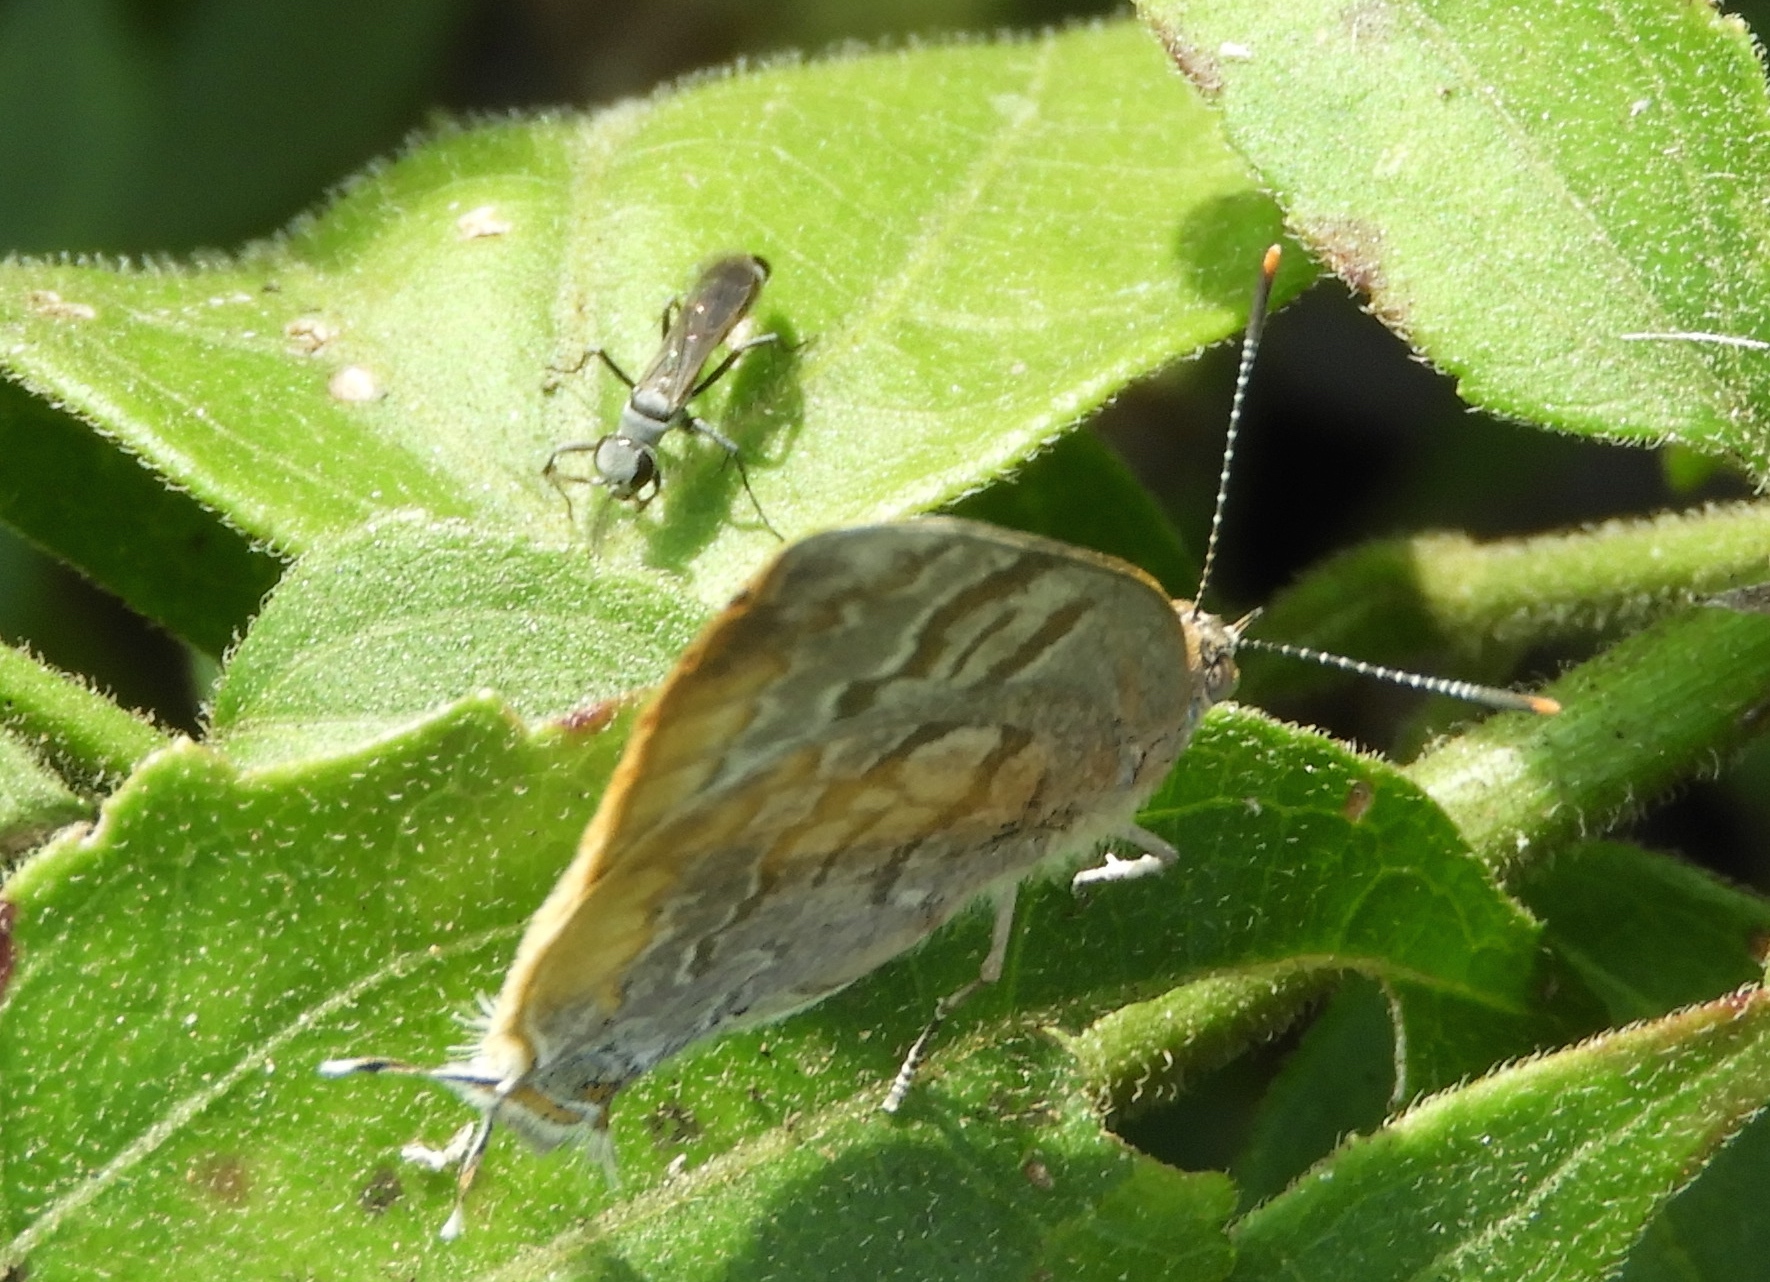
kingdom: Animalia
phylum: Arthropoda
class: Insecta
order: Lepidoptera
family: Lycaenidae
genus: Rekoa
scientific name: Rekoa palegon
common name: Gold-bordered hairstreak
